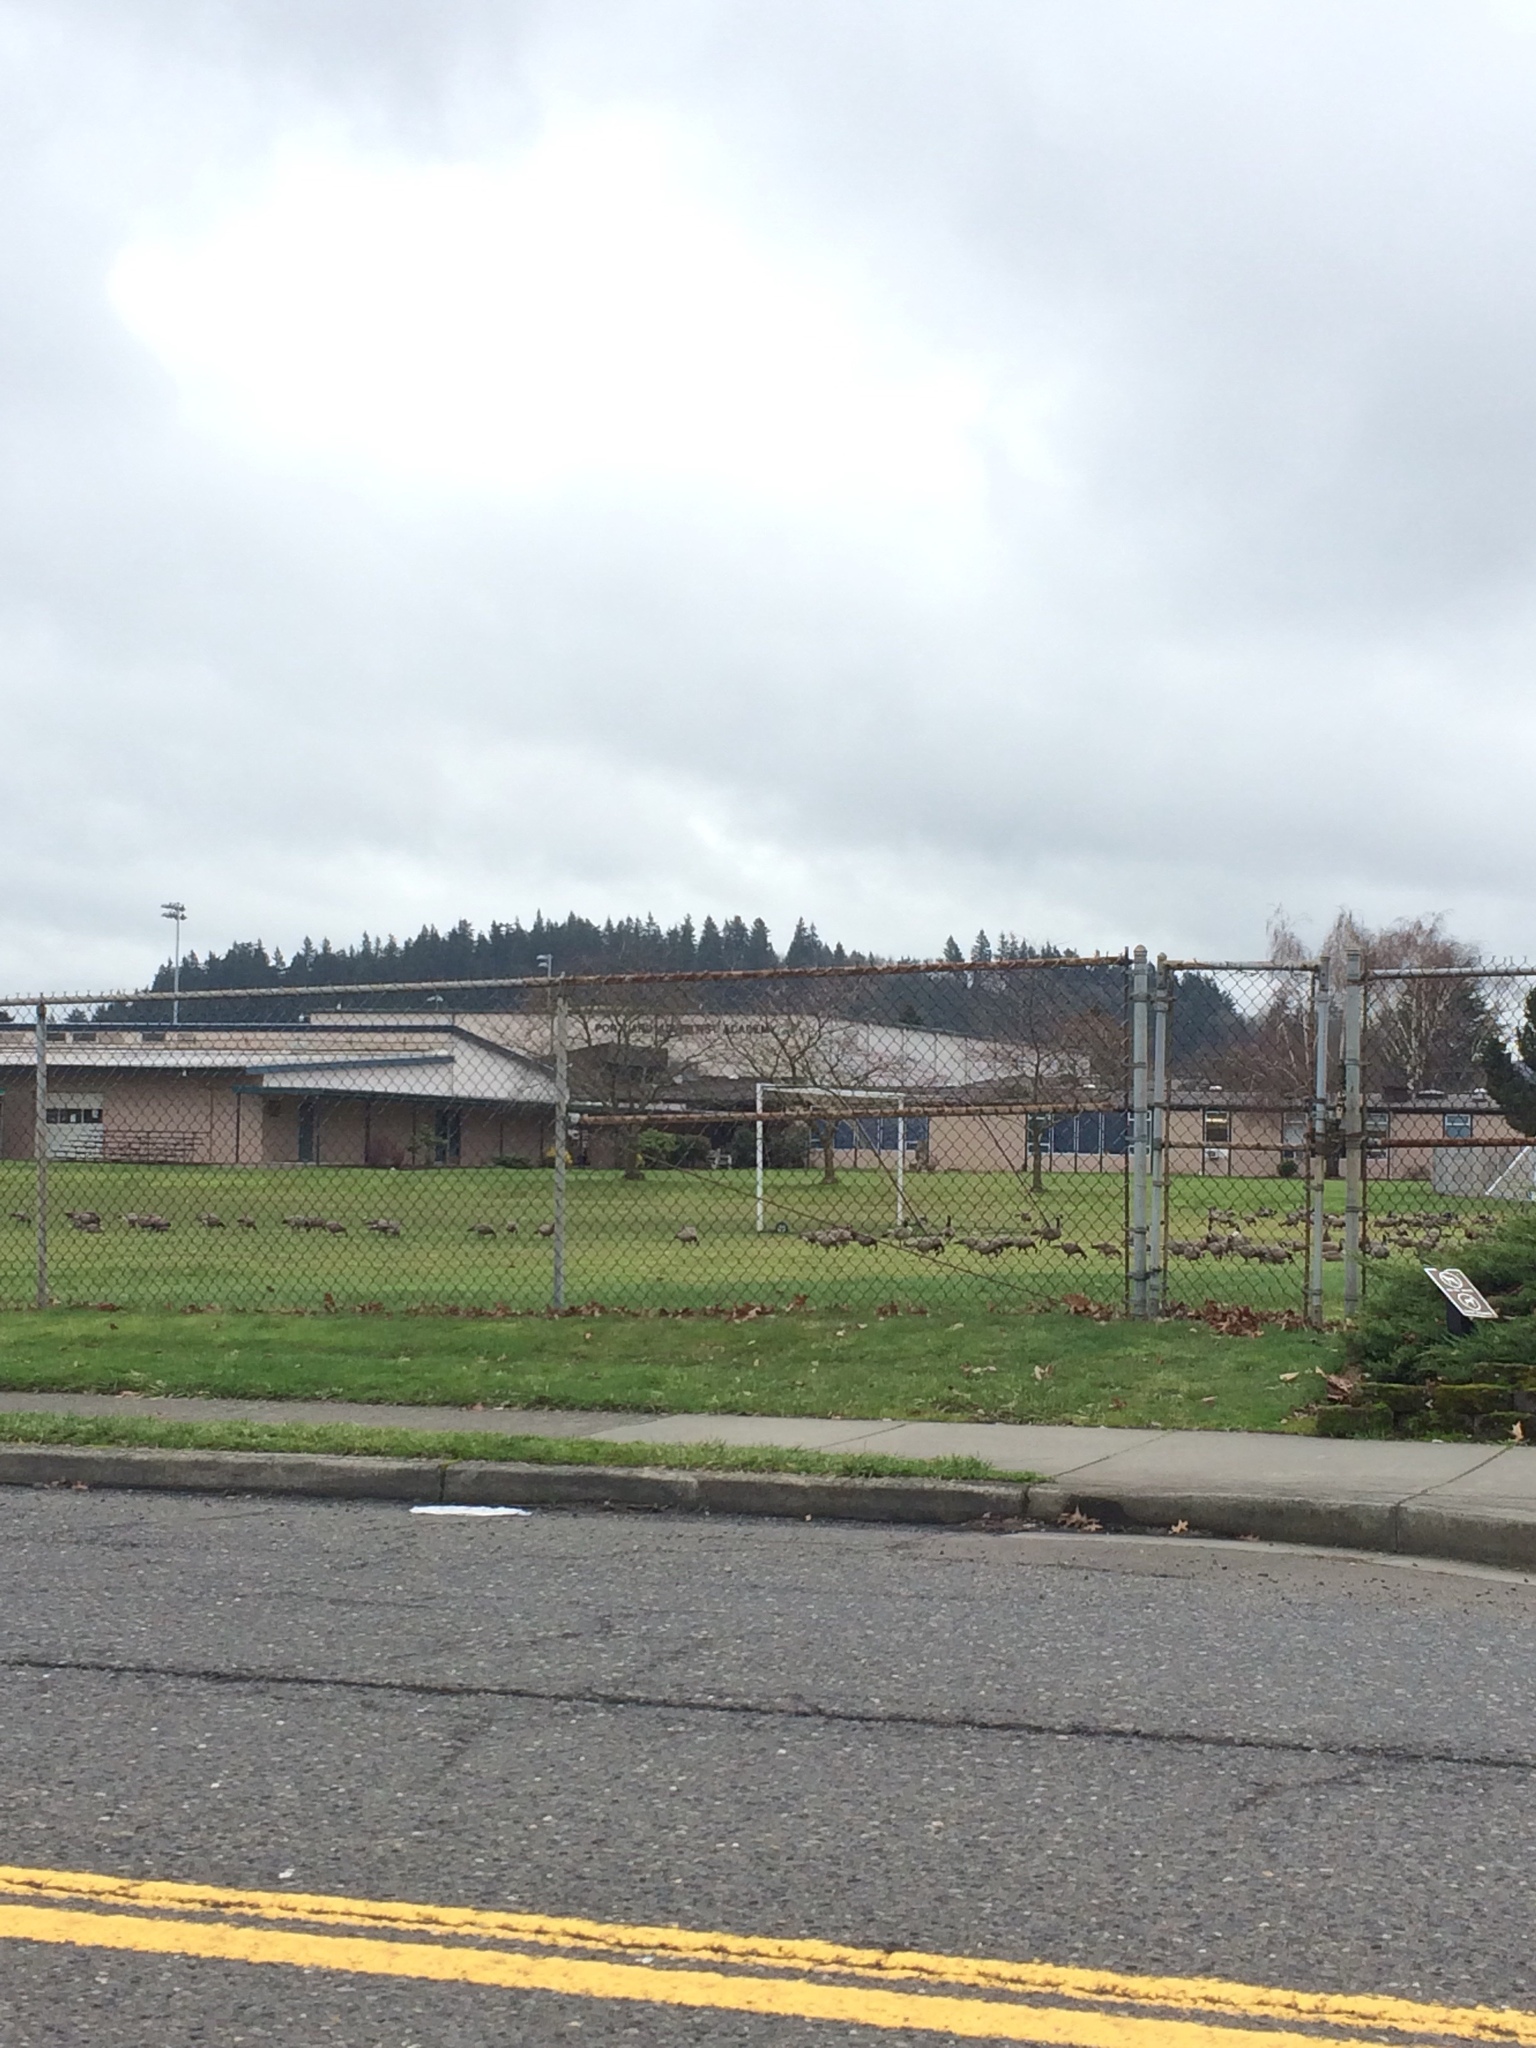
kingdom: Animalia
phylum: Chordata
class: Aves
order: Anseriformes
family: Anatidae
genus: Branta
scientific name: Branta canadensis
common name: Canada goose
